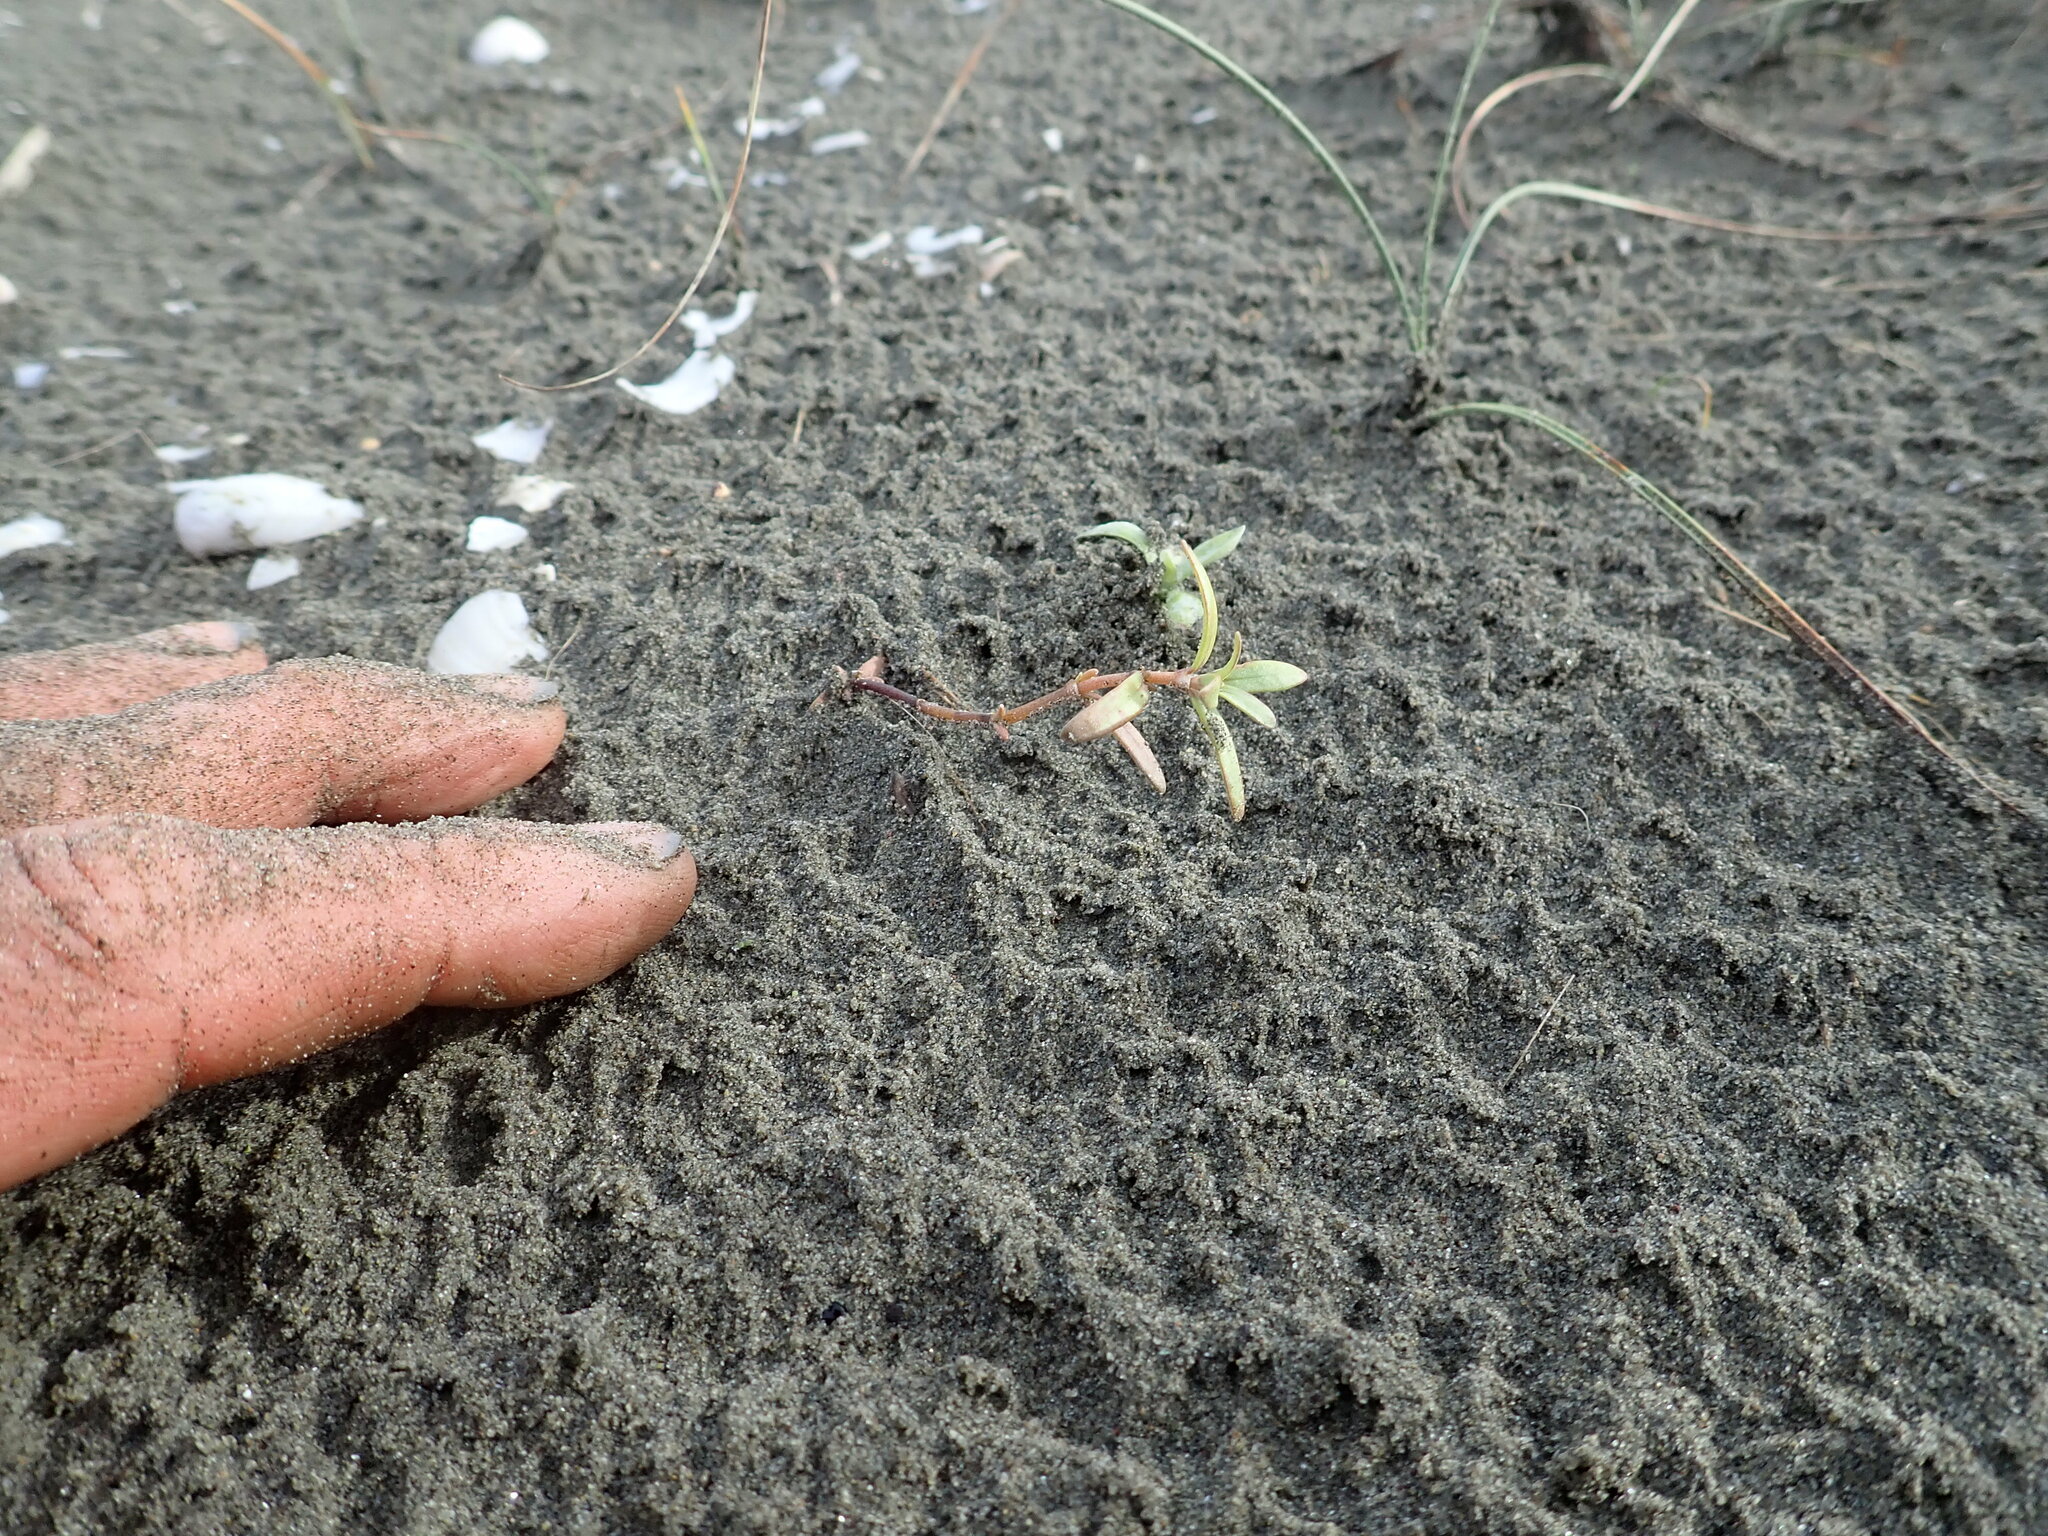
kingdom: Plantae
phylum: Tracheophyta
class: Magnoliopsida
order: Gentianales
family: Rubiaceae
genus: Coprosma
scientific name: Coprosma acerosa
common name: Sand coprosma
